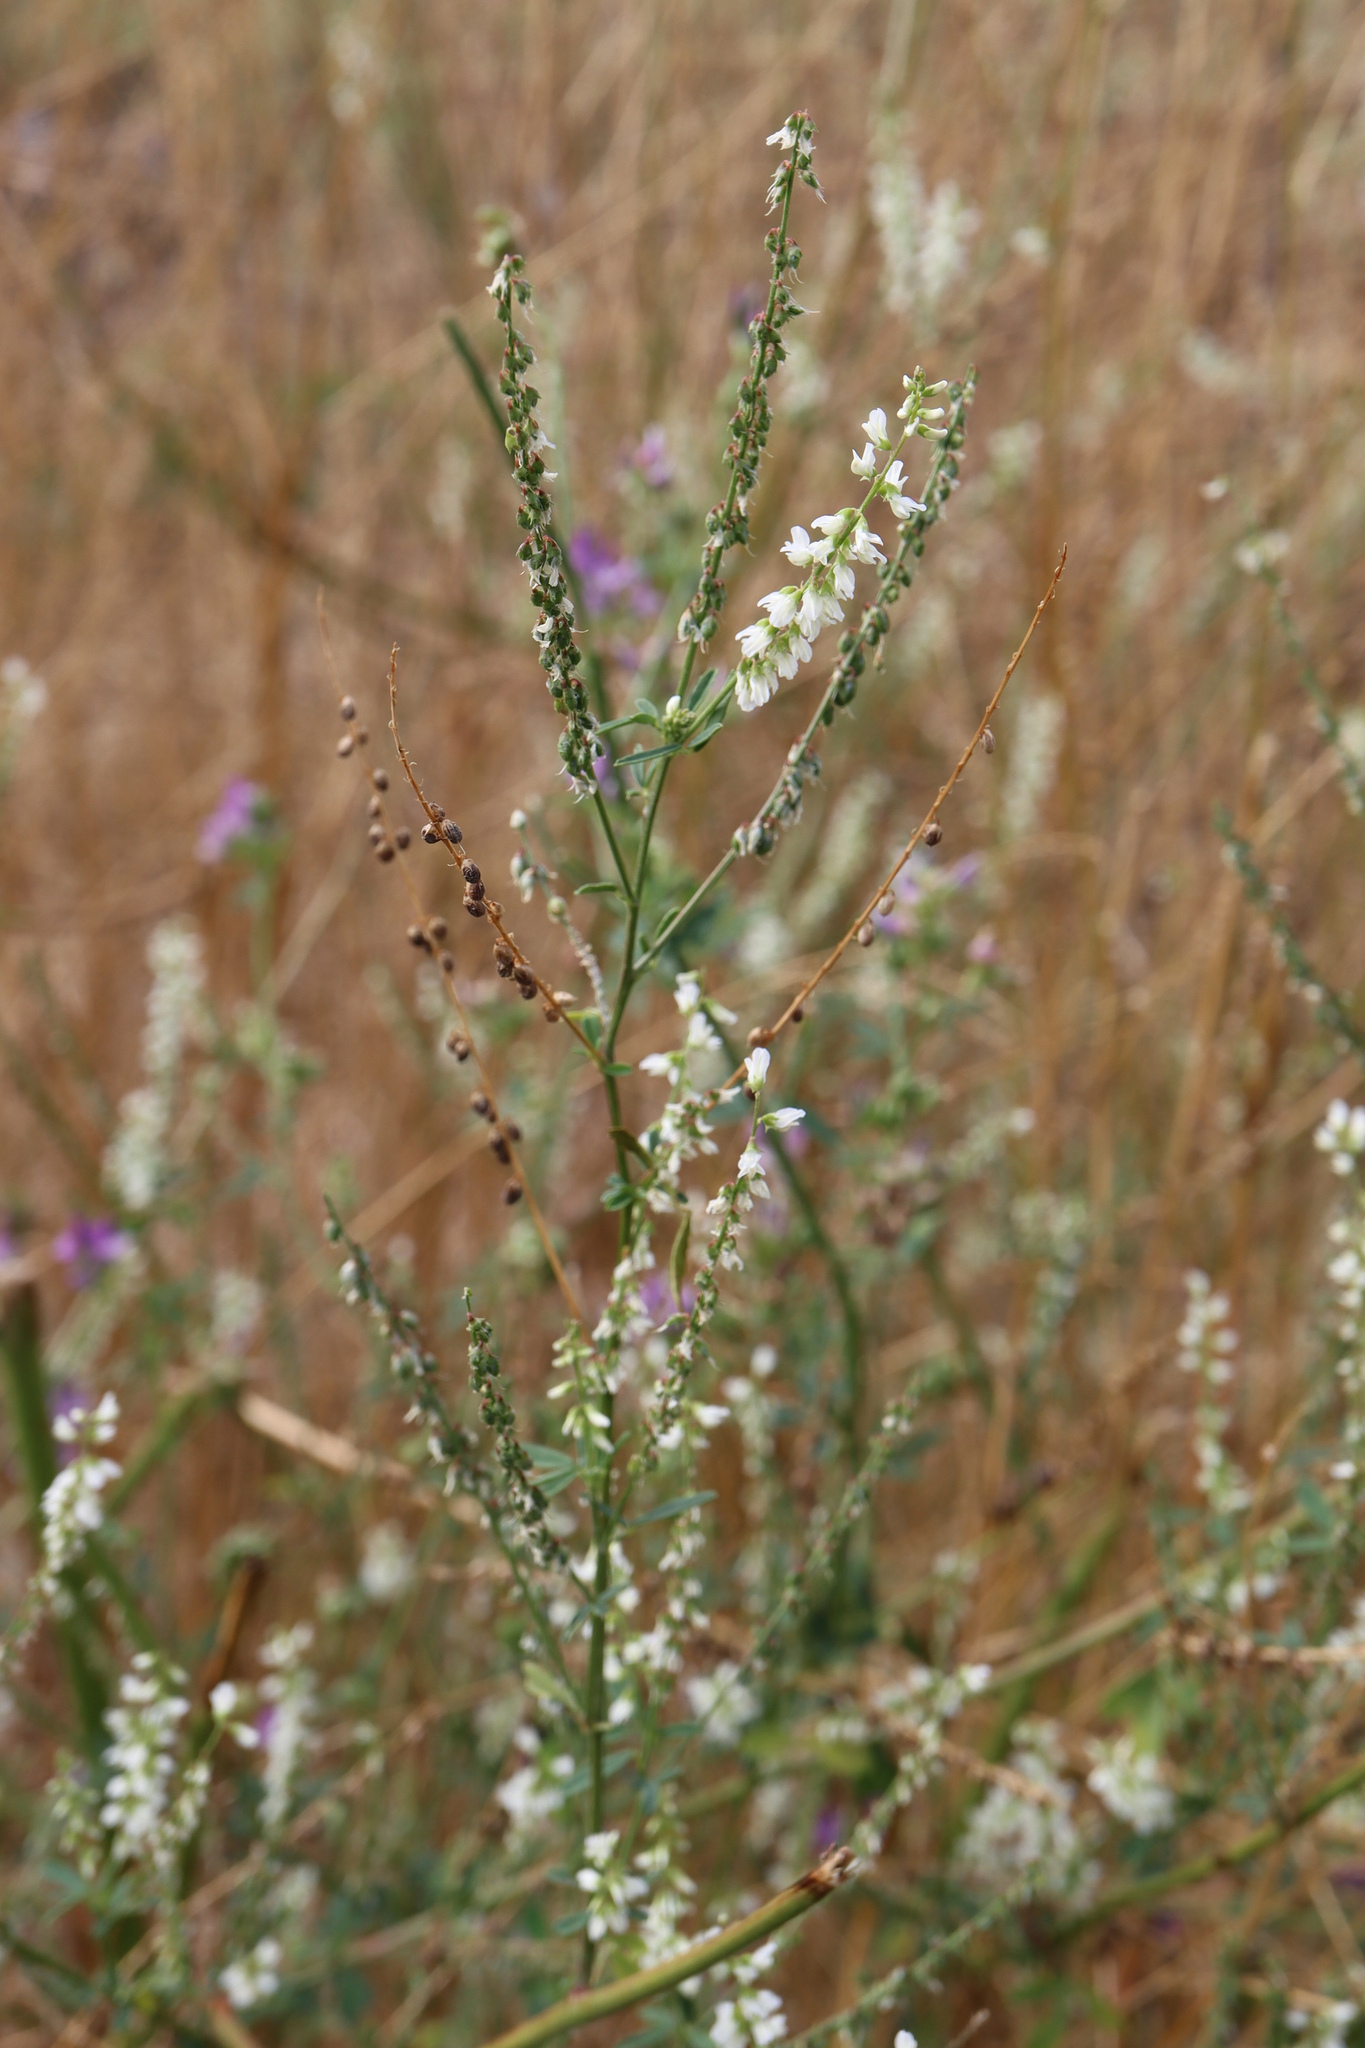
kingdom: Plantae
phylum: Tracheophyta
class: Magnoliopsida
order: Fabales
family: Fabaceae
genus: Melilotus
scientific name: Melilotus albus
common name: White melilot
